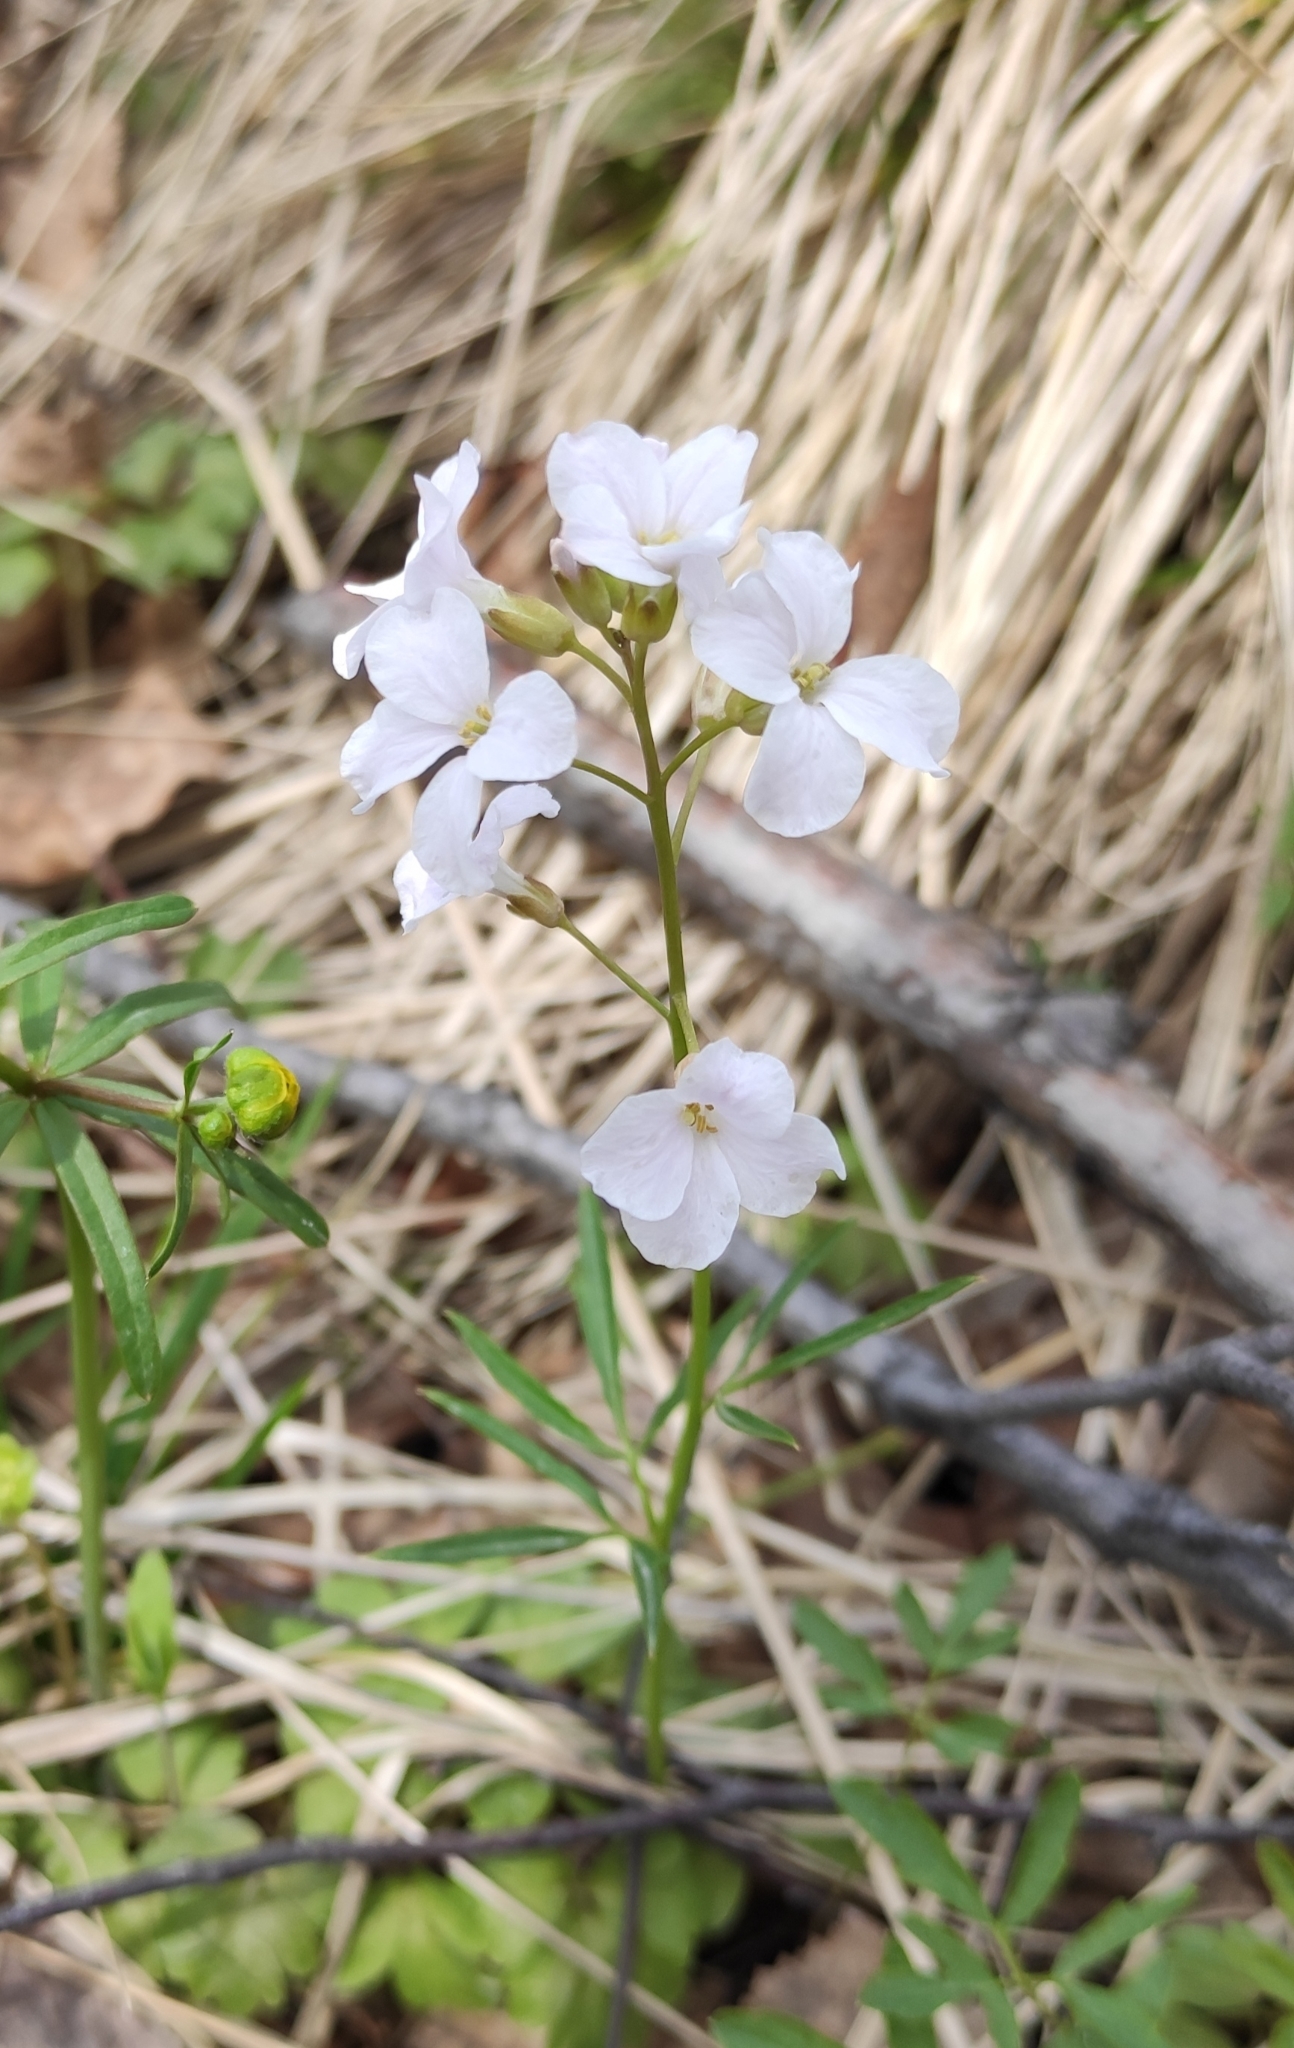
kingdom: Plantae
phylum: Tracheophyta
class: Magnoliopsida
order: Brassicales
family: Brassicaceae
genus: Cardamine
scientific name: Cardamine trifida
